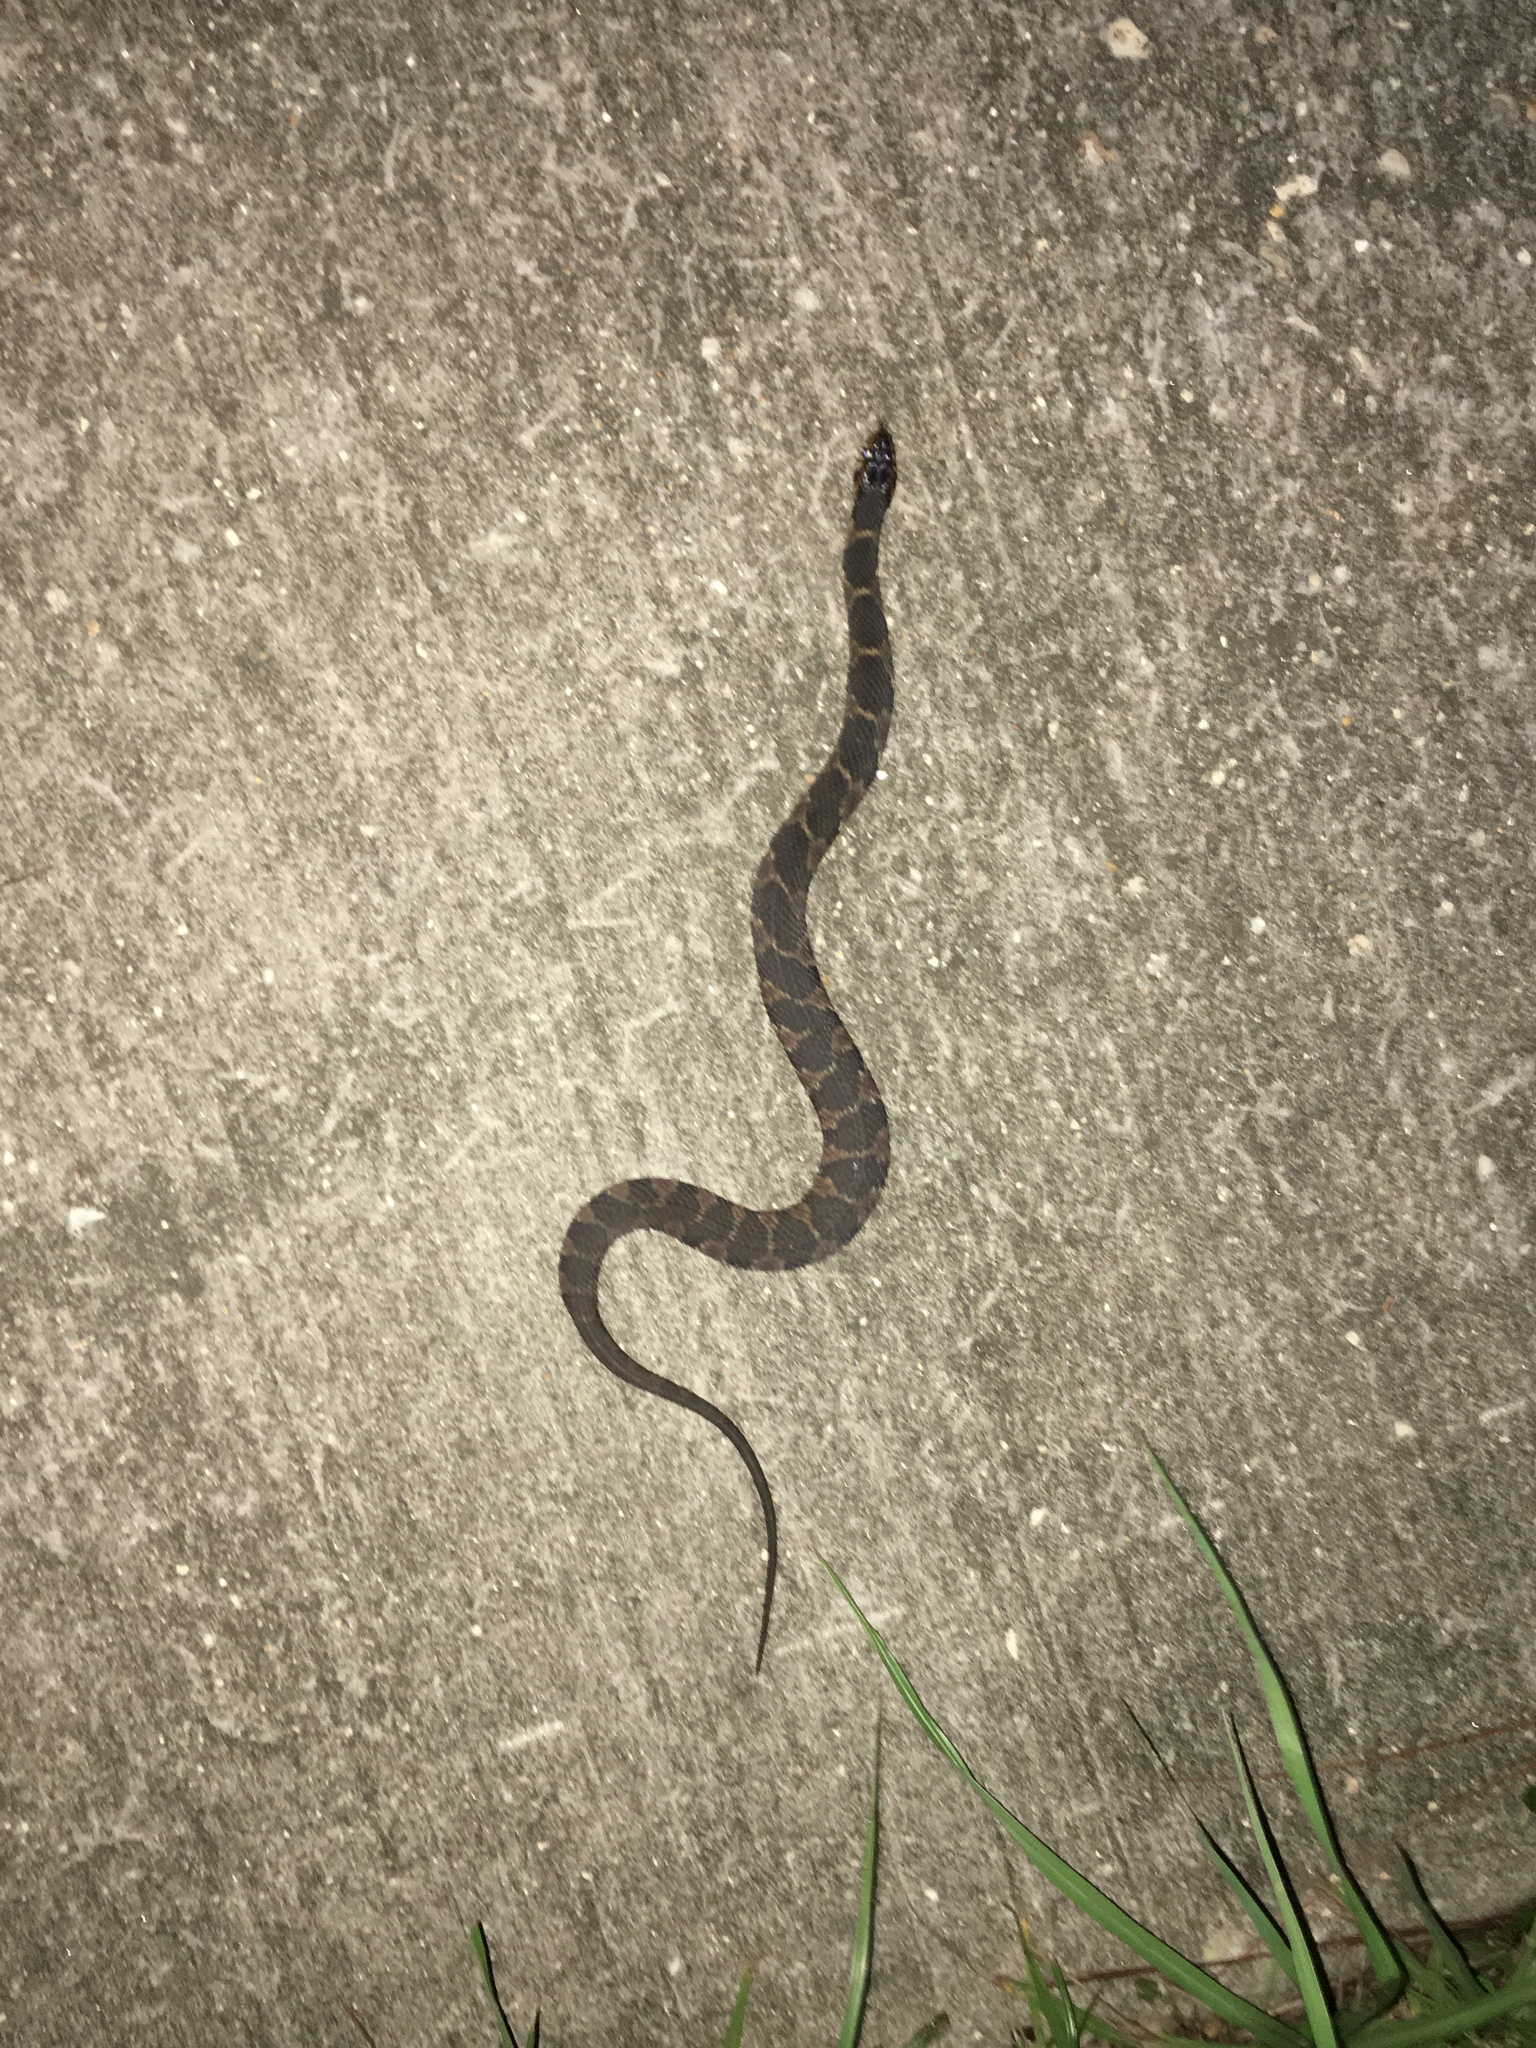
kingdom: Animalia
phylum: Chordata
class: Squamata
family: Colubridae
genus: Nerodia
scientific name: Nerodia fasciata
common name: Southern water snake
